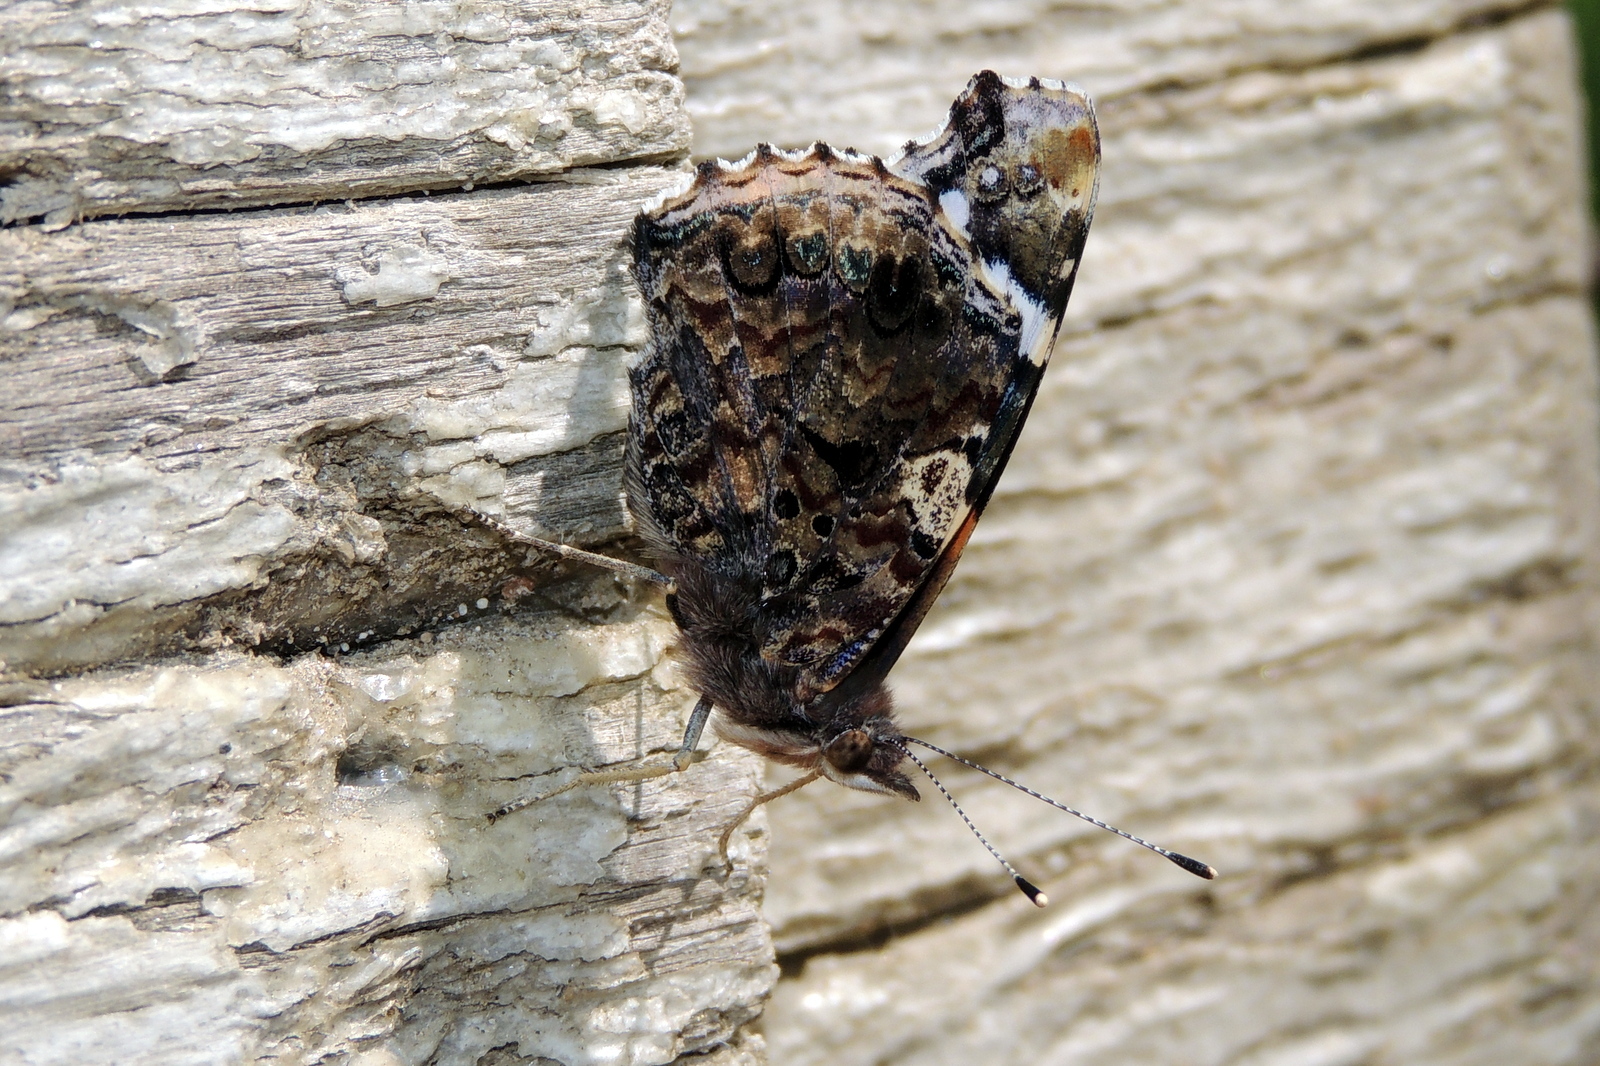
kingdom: Animalia
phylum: Arthropoda
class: Insecta
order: Lepidoptera
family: Nymphalidae
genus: Vanessa
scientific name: Vanessa atalanta
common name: Red admiral
